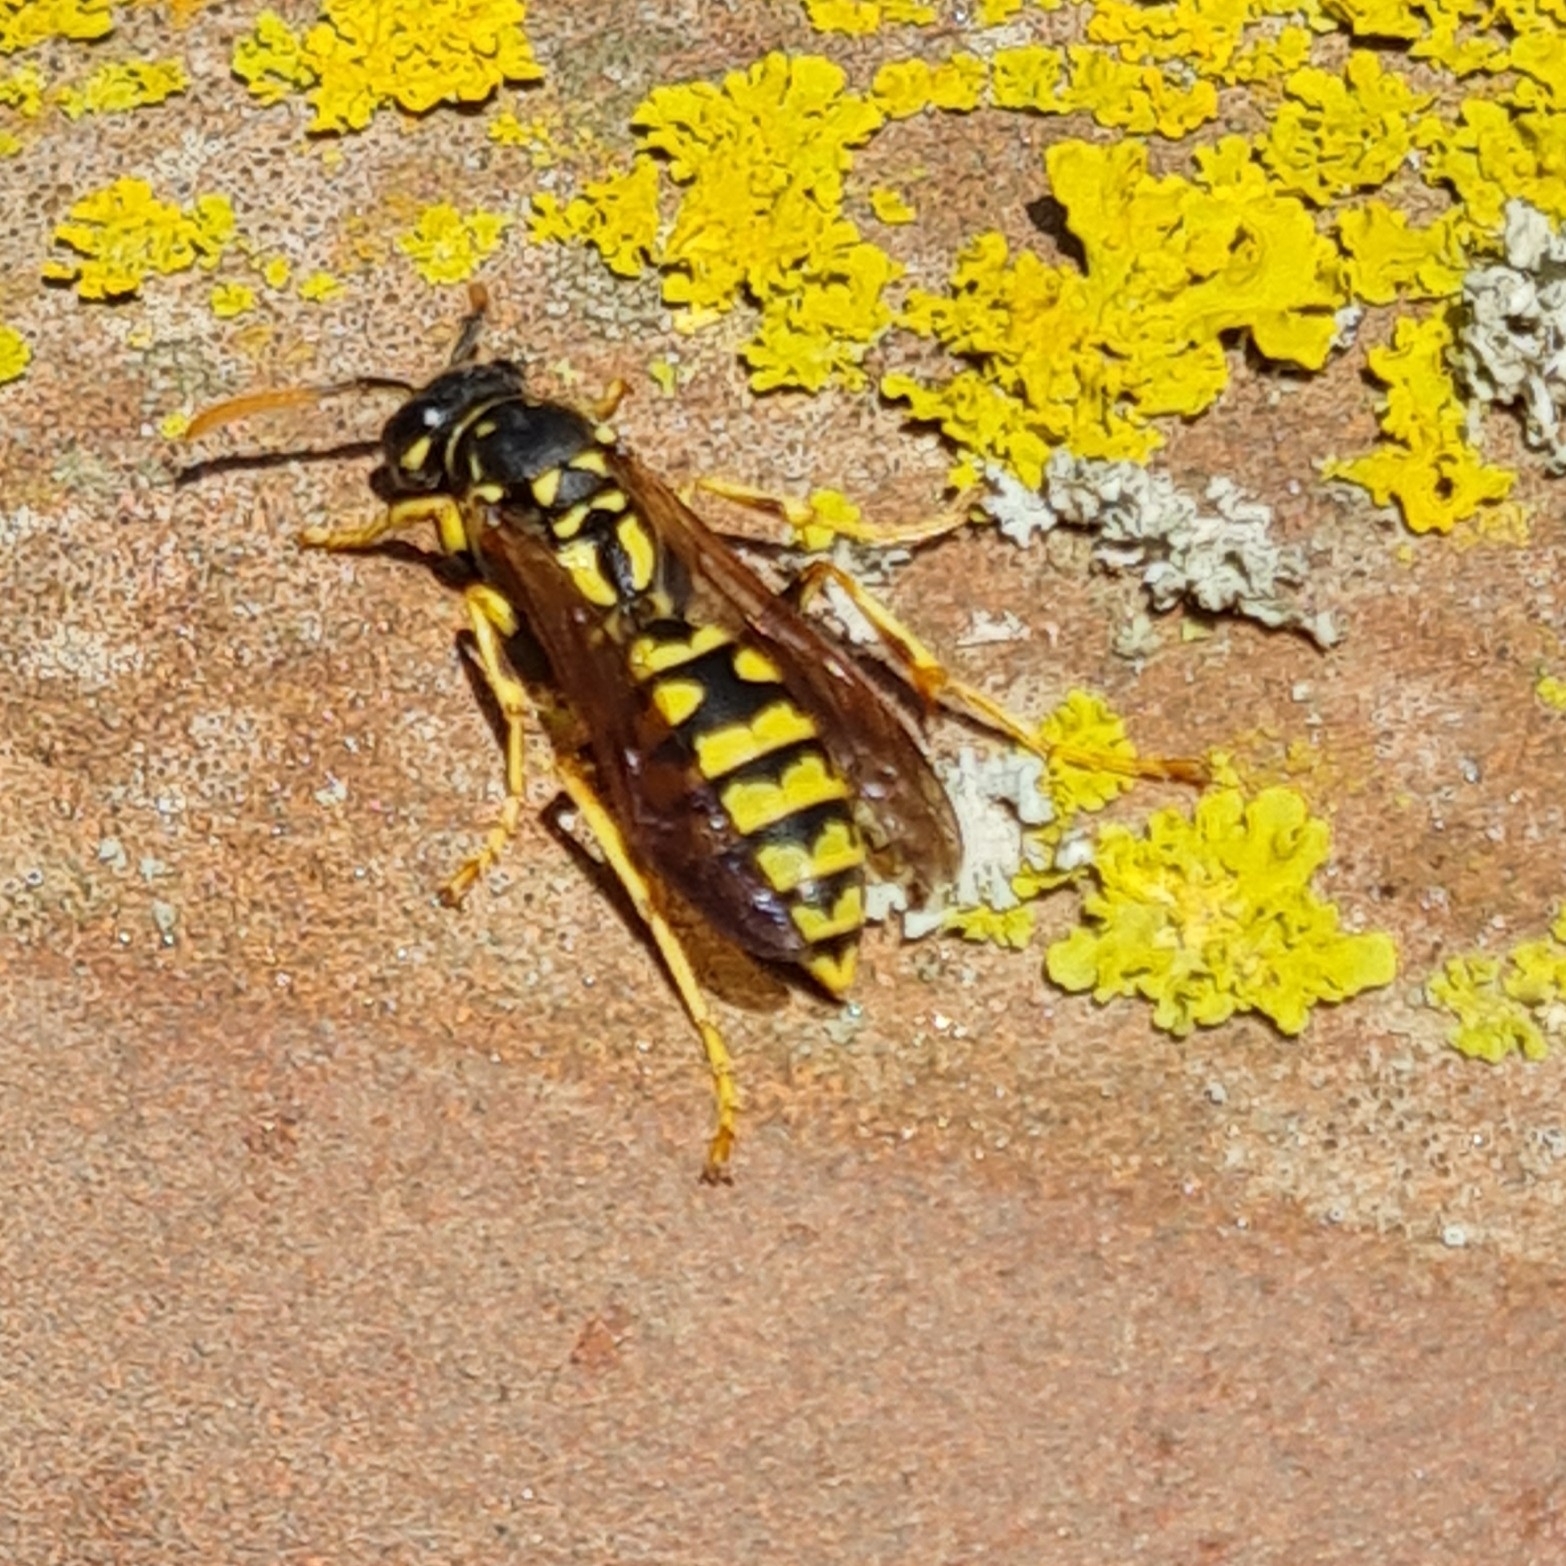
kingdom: Animalia
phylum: Arthropoda
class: Insecta
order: Hymenoptera
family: Eumenidae
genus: Polistes
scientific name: Polistes dominula
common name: Paper wasp
